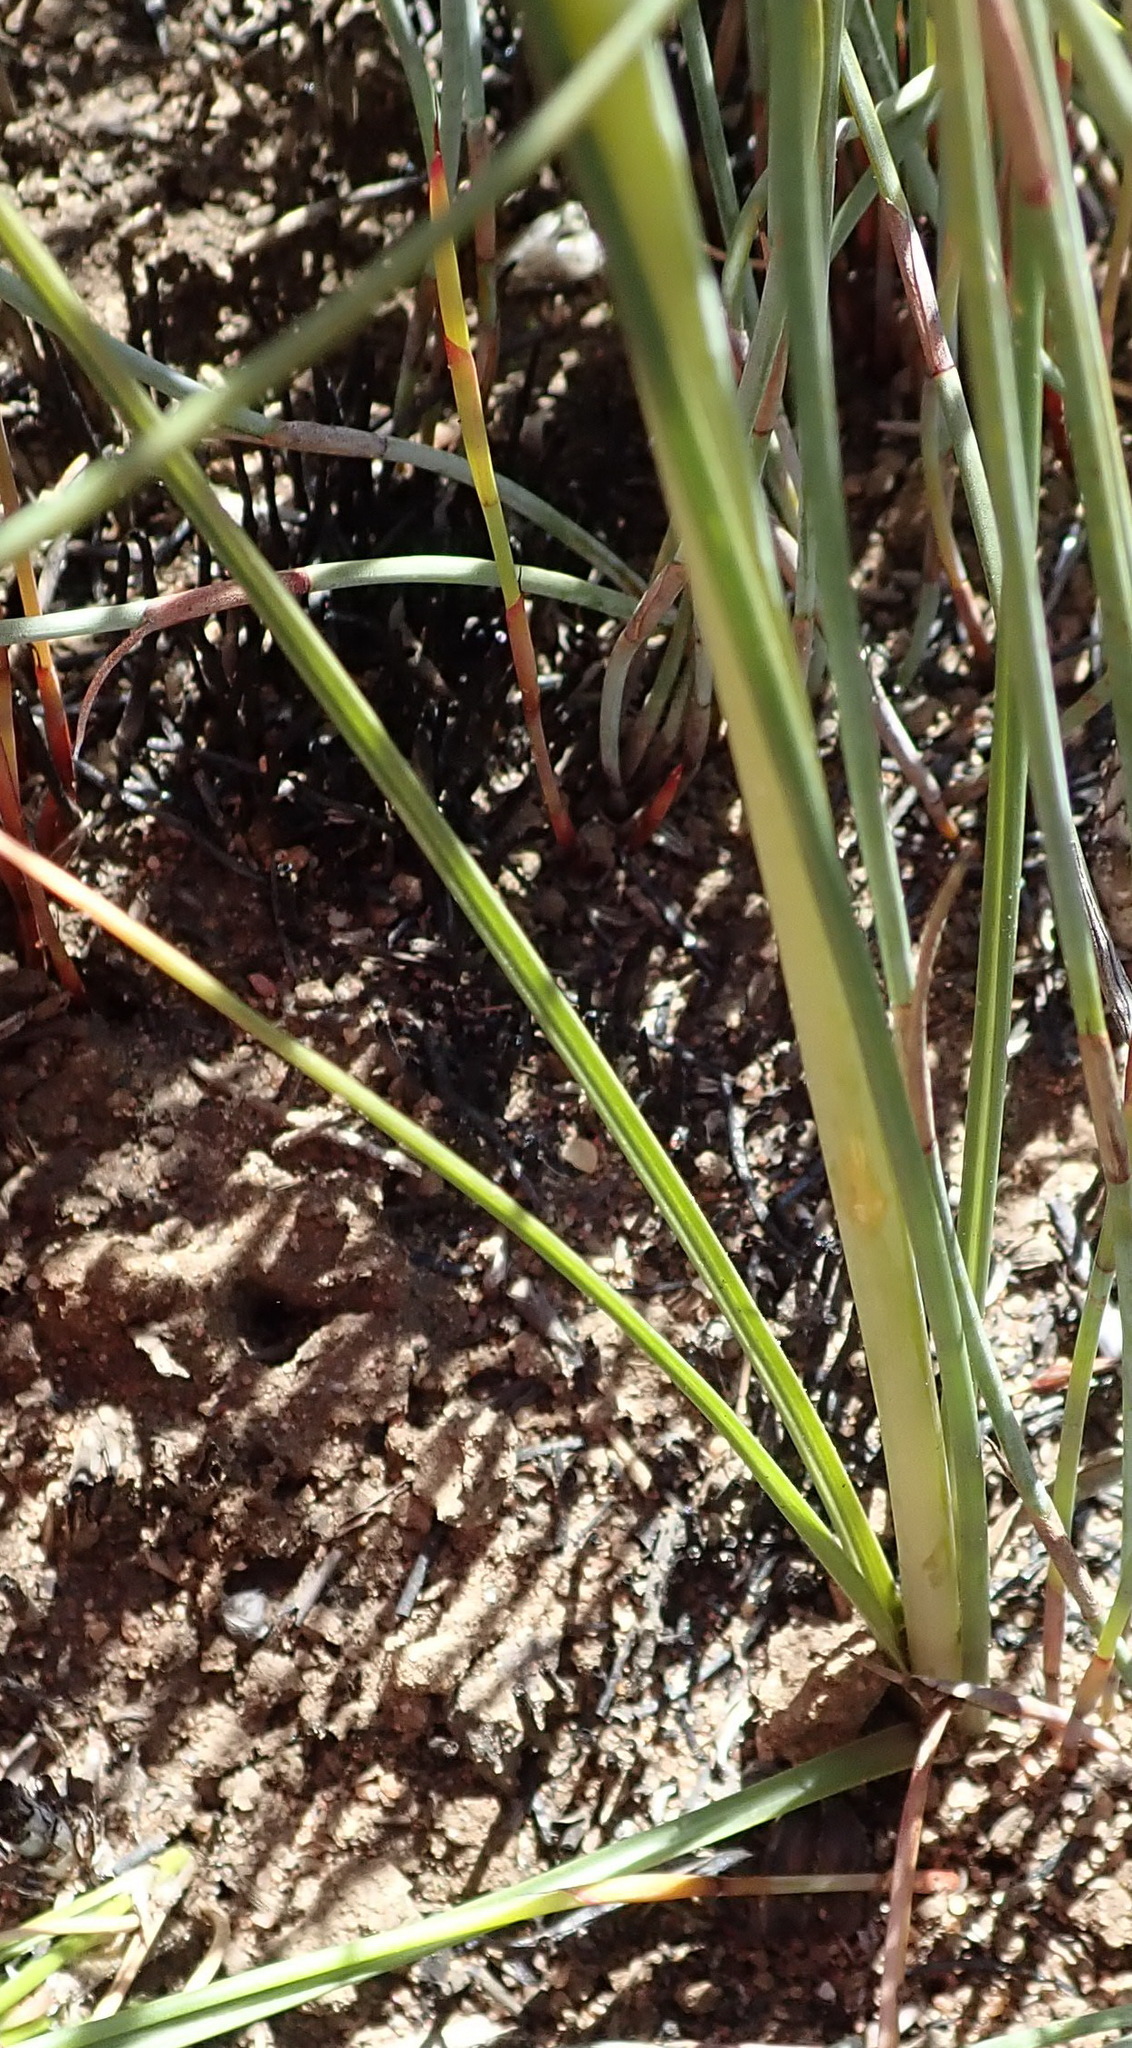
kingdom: Plantae
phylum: Tracheophyta
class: Liliopsida
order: Asparagales
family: Asparagaceae
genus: Albuca
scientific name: Albuca cooperi
